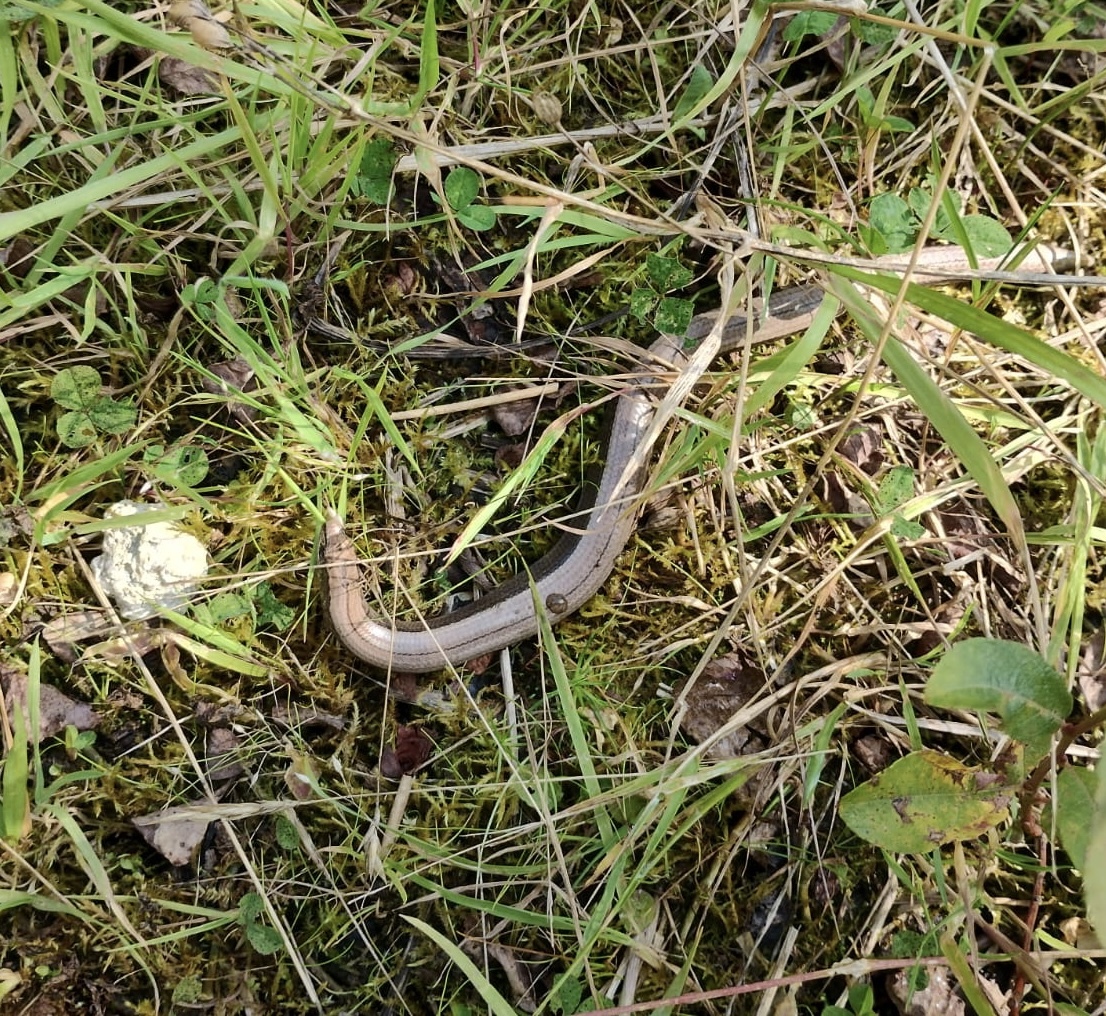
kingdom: Animalia
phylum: Chordata
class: Squamata
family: Anguidae
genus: Anguis
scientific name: Anguis fragilis
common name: Slow worm
